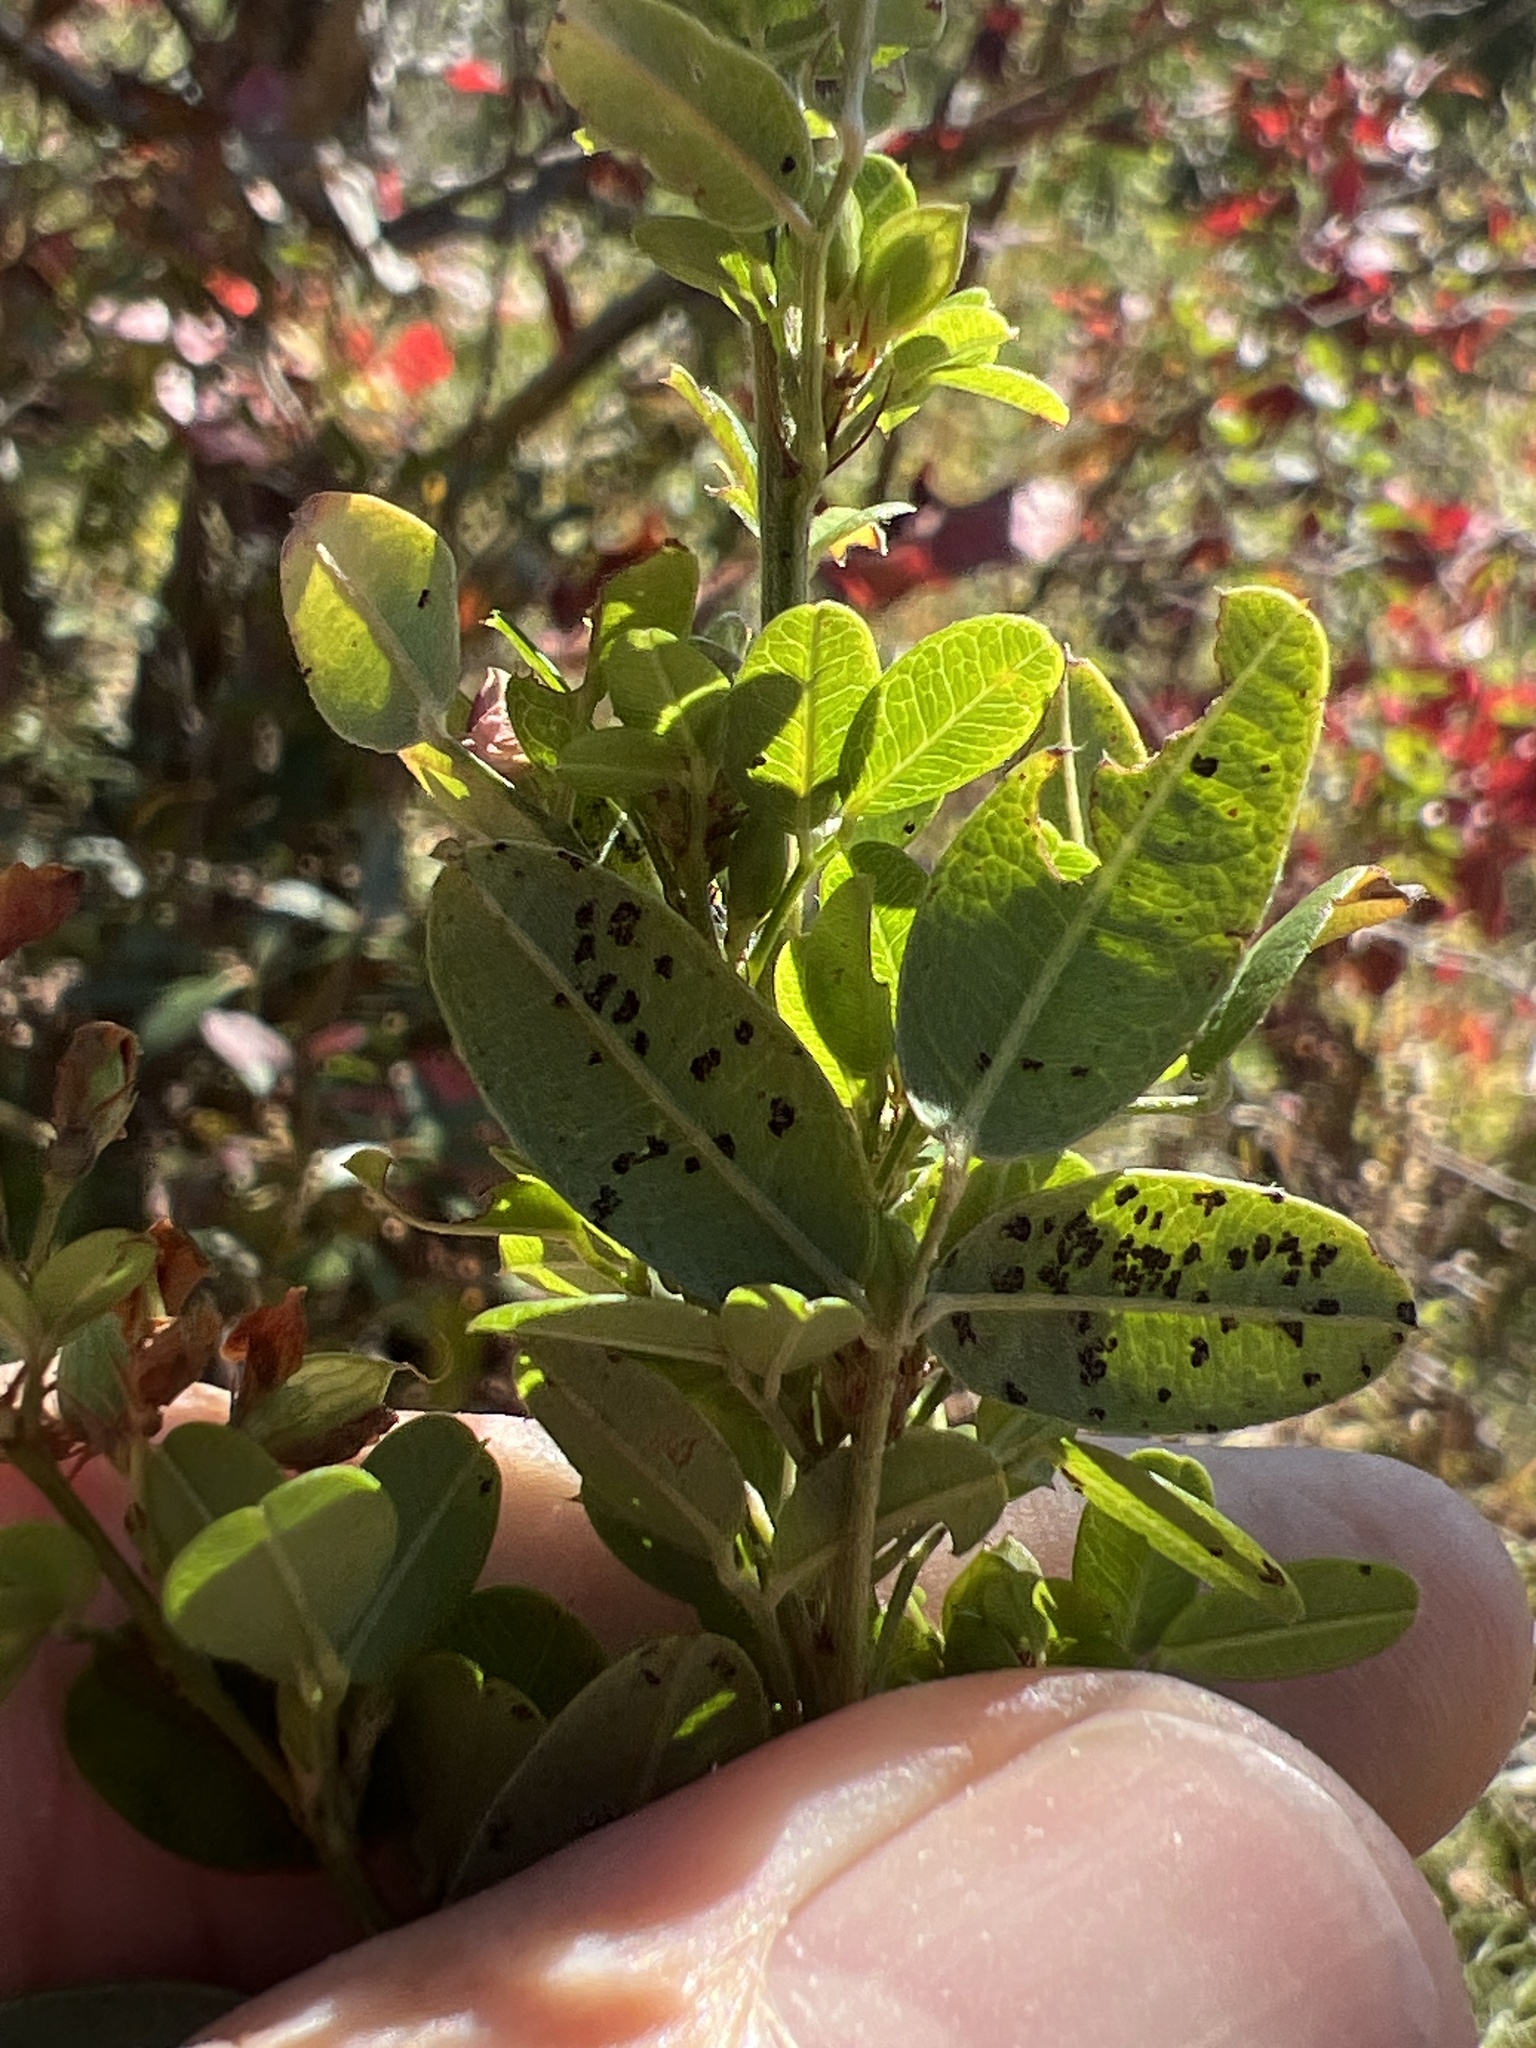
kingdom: Plantae
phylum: Tracheophyta
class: Magnoliopsida
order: Fabales
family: Fabaceae
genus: Lespedeza
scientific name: Lespedeza violacea
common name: Wand bush-clover
